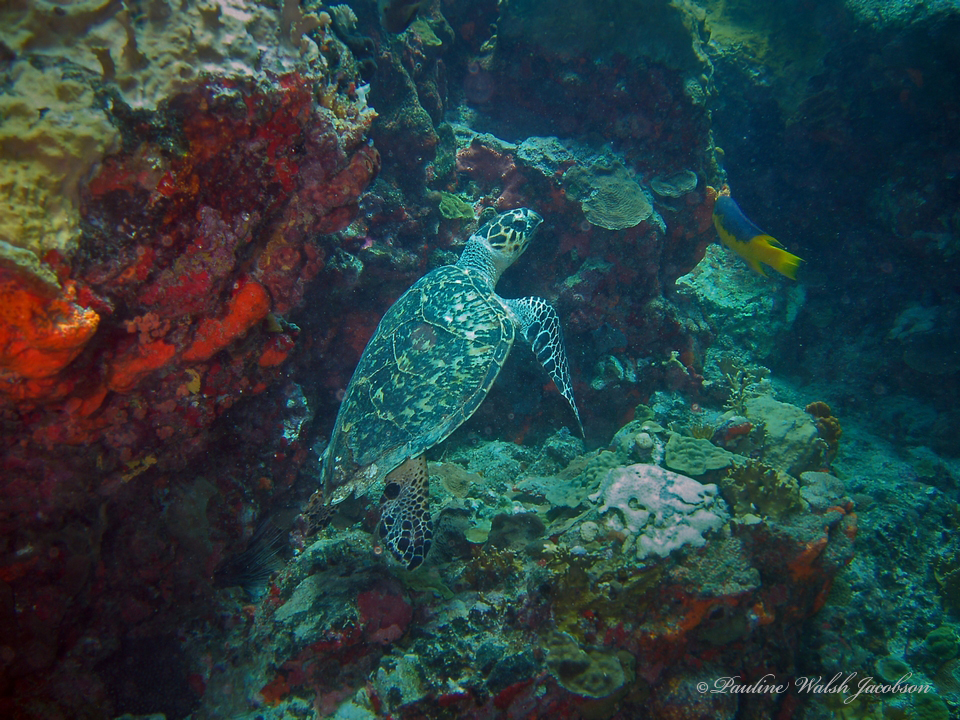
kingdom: Animalia
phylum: Chordata
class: Testudines
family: Cheloniidae
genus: Eretmochelys
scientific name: Eretmochelys imbricata
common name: Hawksbill turtle
